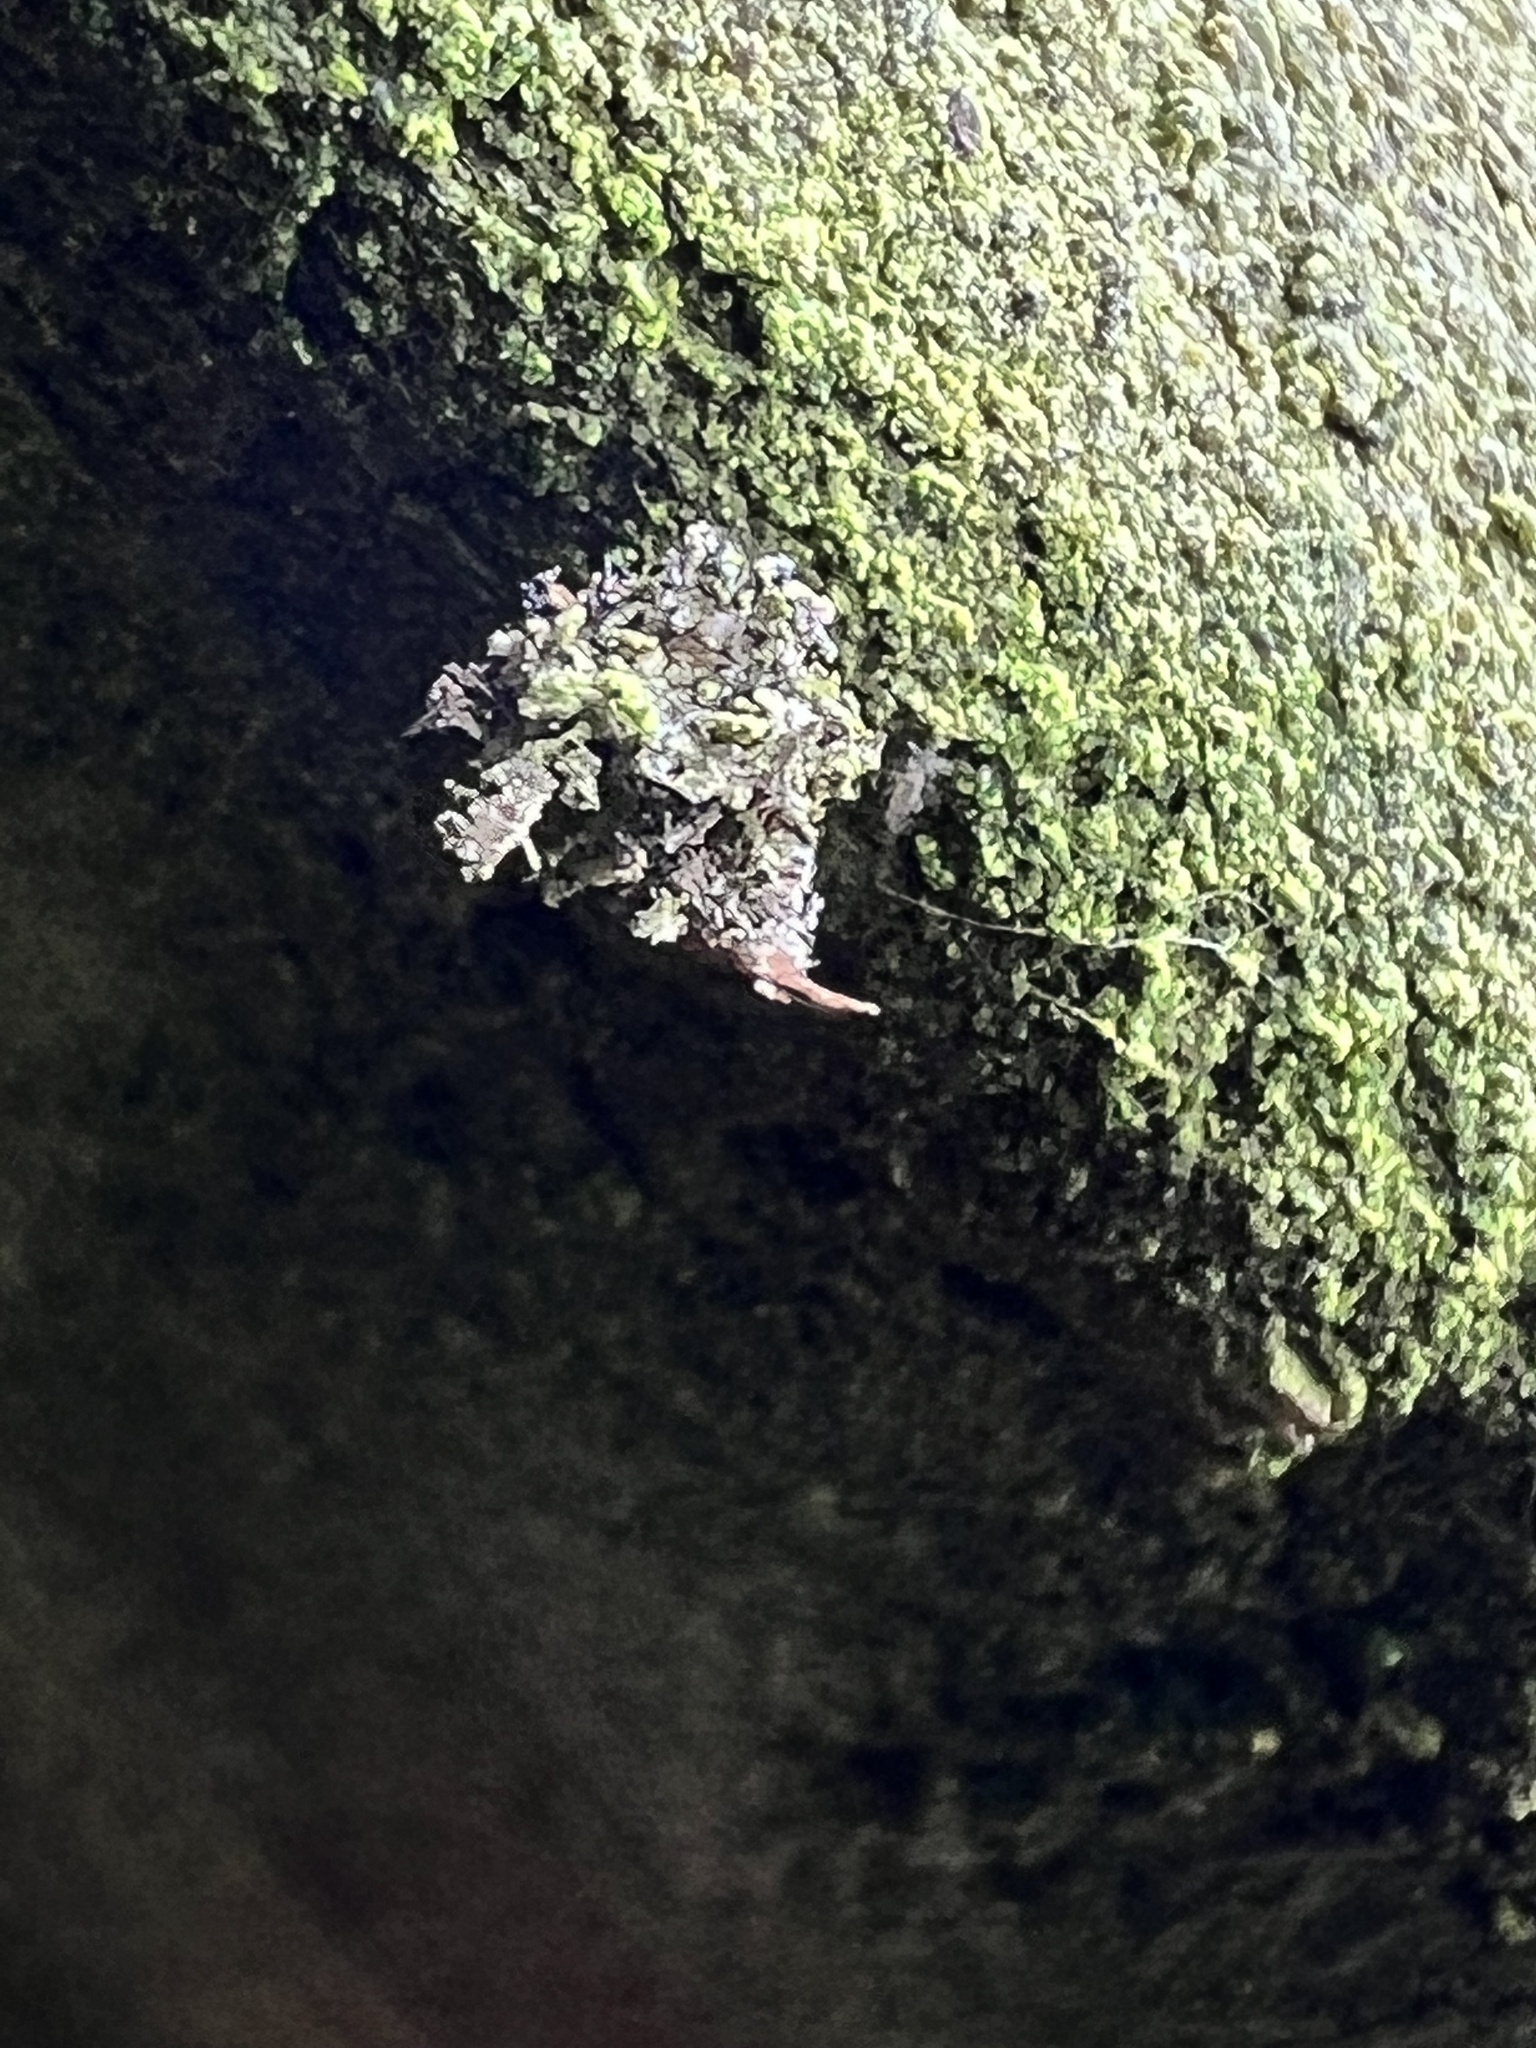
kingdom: Animalia
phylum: Arthropoda
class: Insecta
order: Neuroptera
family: Chrysopidae
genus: Leucochrysa
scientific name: Leucochrysa pavida
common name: Lichen-carrying green lacewing
